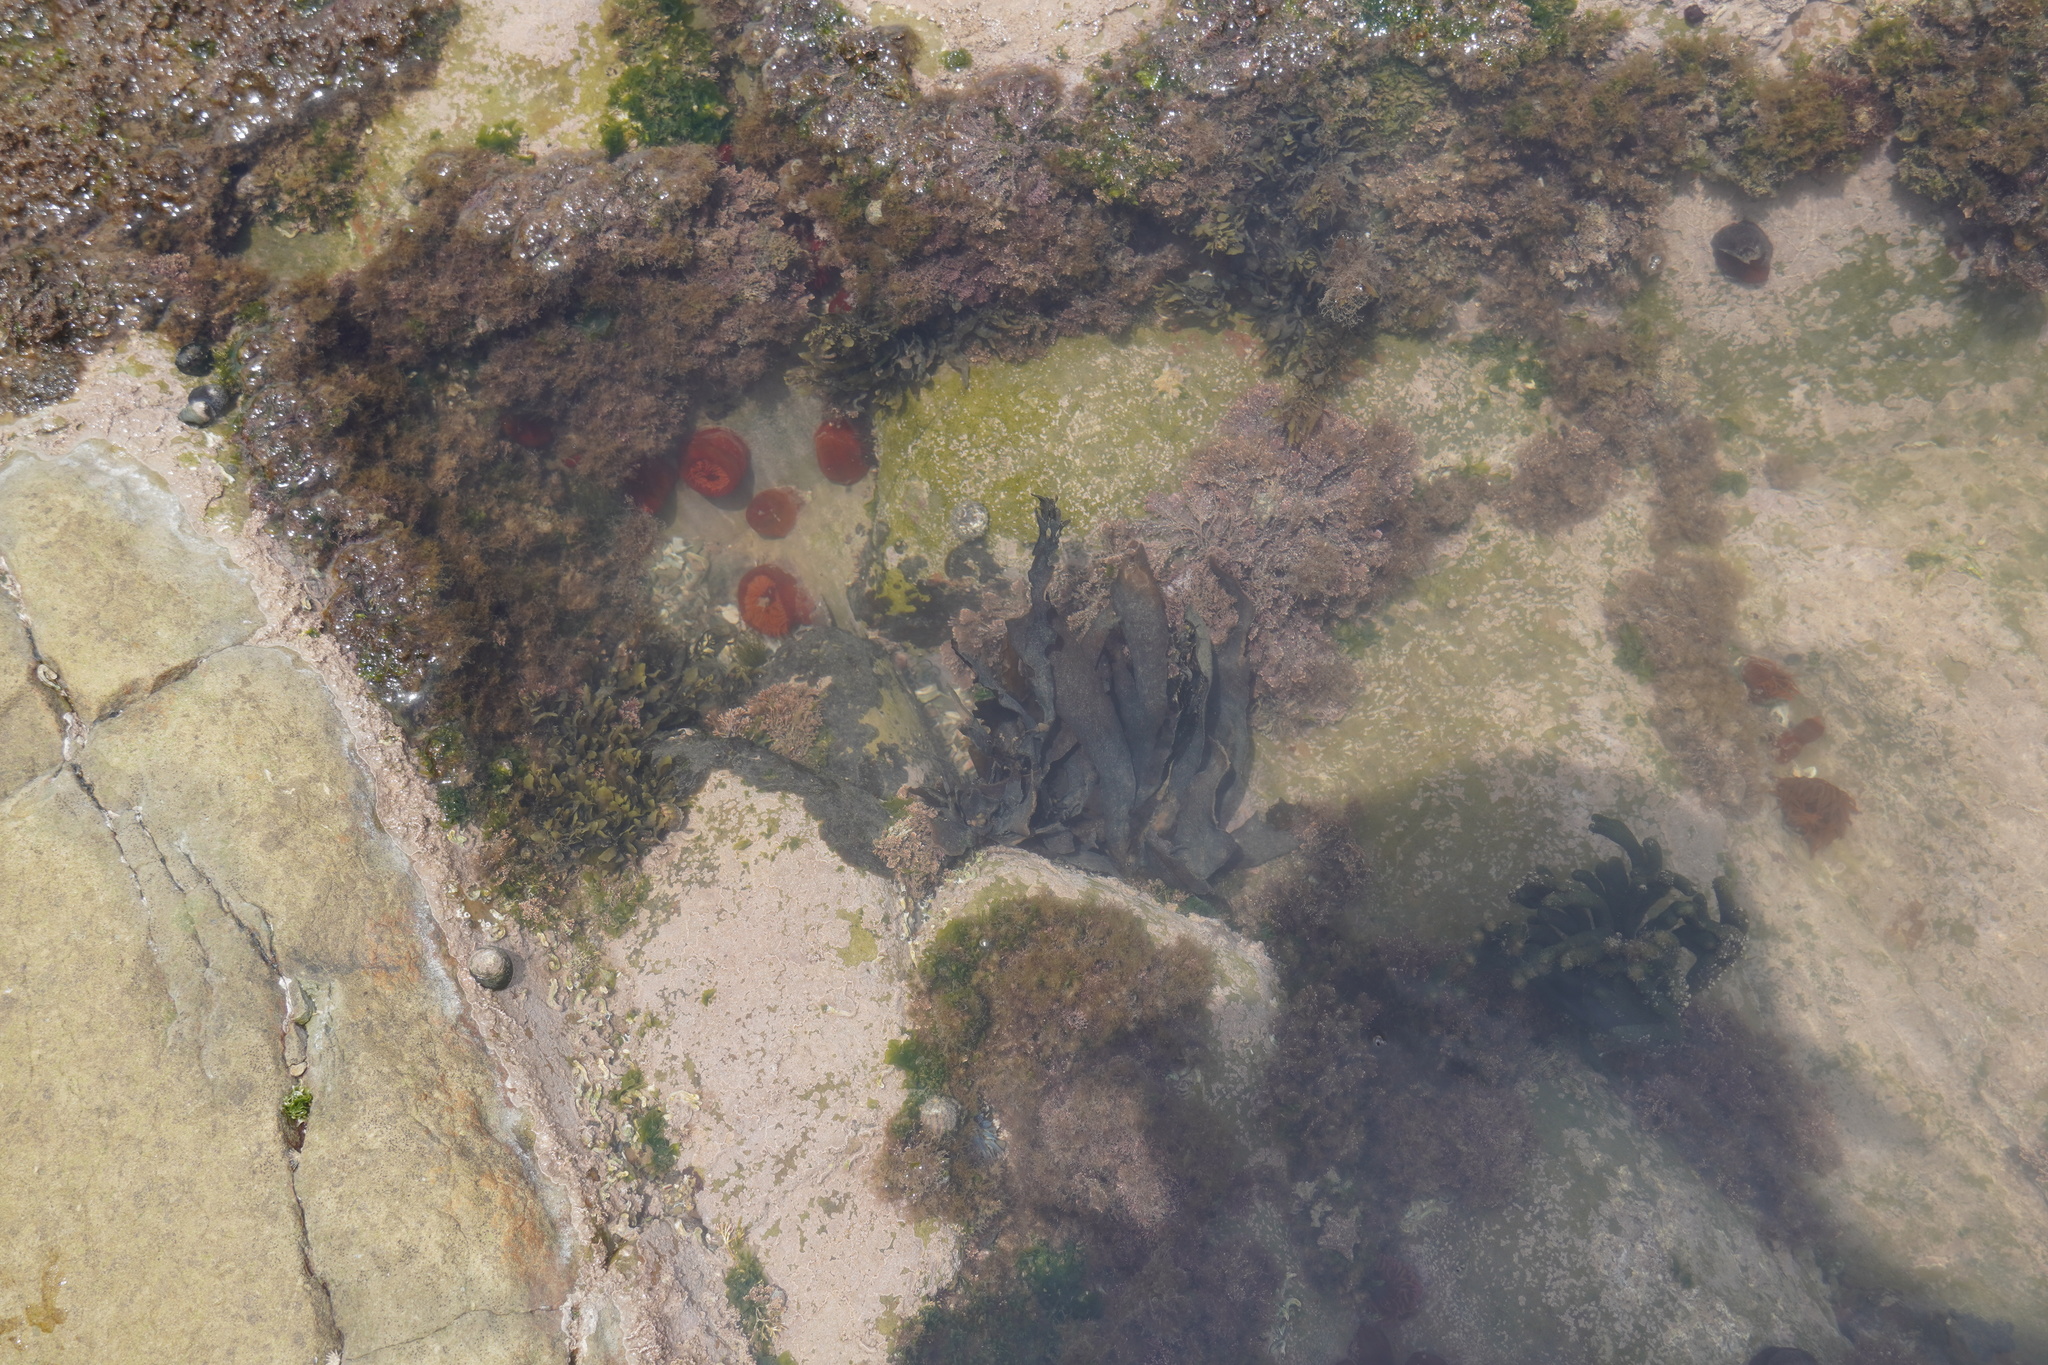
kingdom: Plantae
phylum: Chlorophyta
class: Ulvophyceae
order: Bryopsidales
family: Codiaceae
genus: Codium
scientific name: Codium
